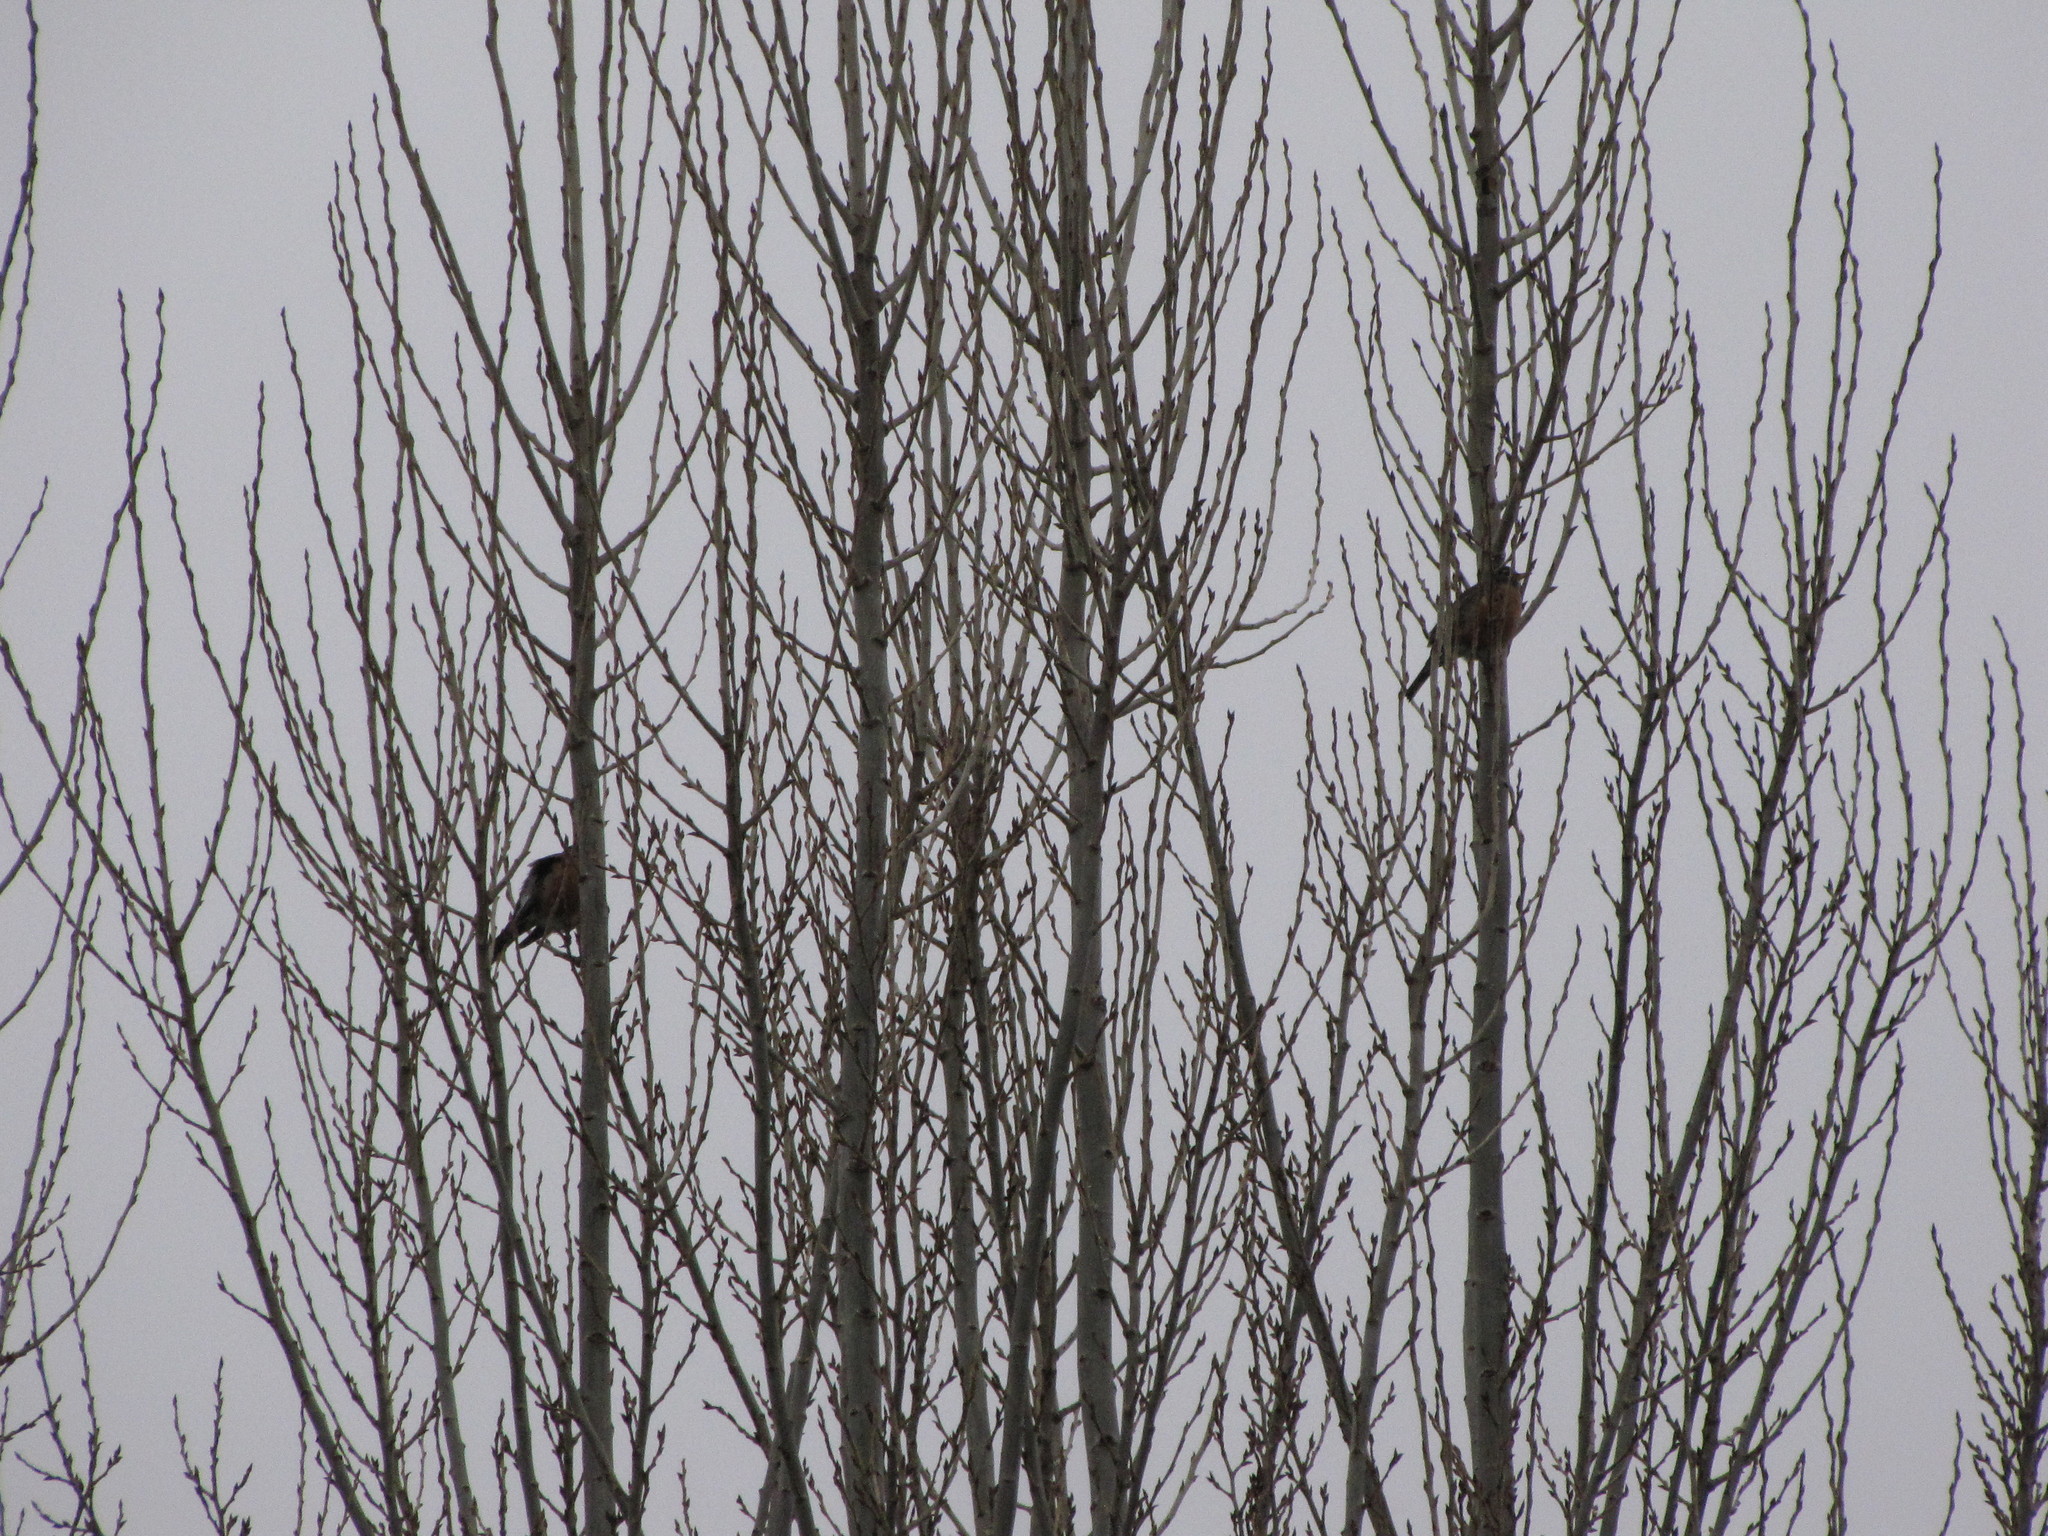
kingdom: Animalia
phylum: Chordata
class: Aves
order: Passeriformes
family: Turdidae
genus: Turdus
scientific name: Turdus migratorius
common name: American robin
